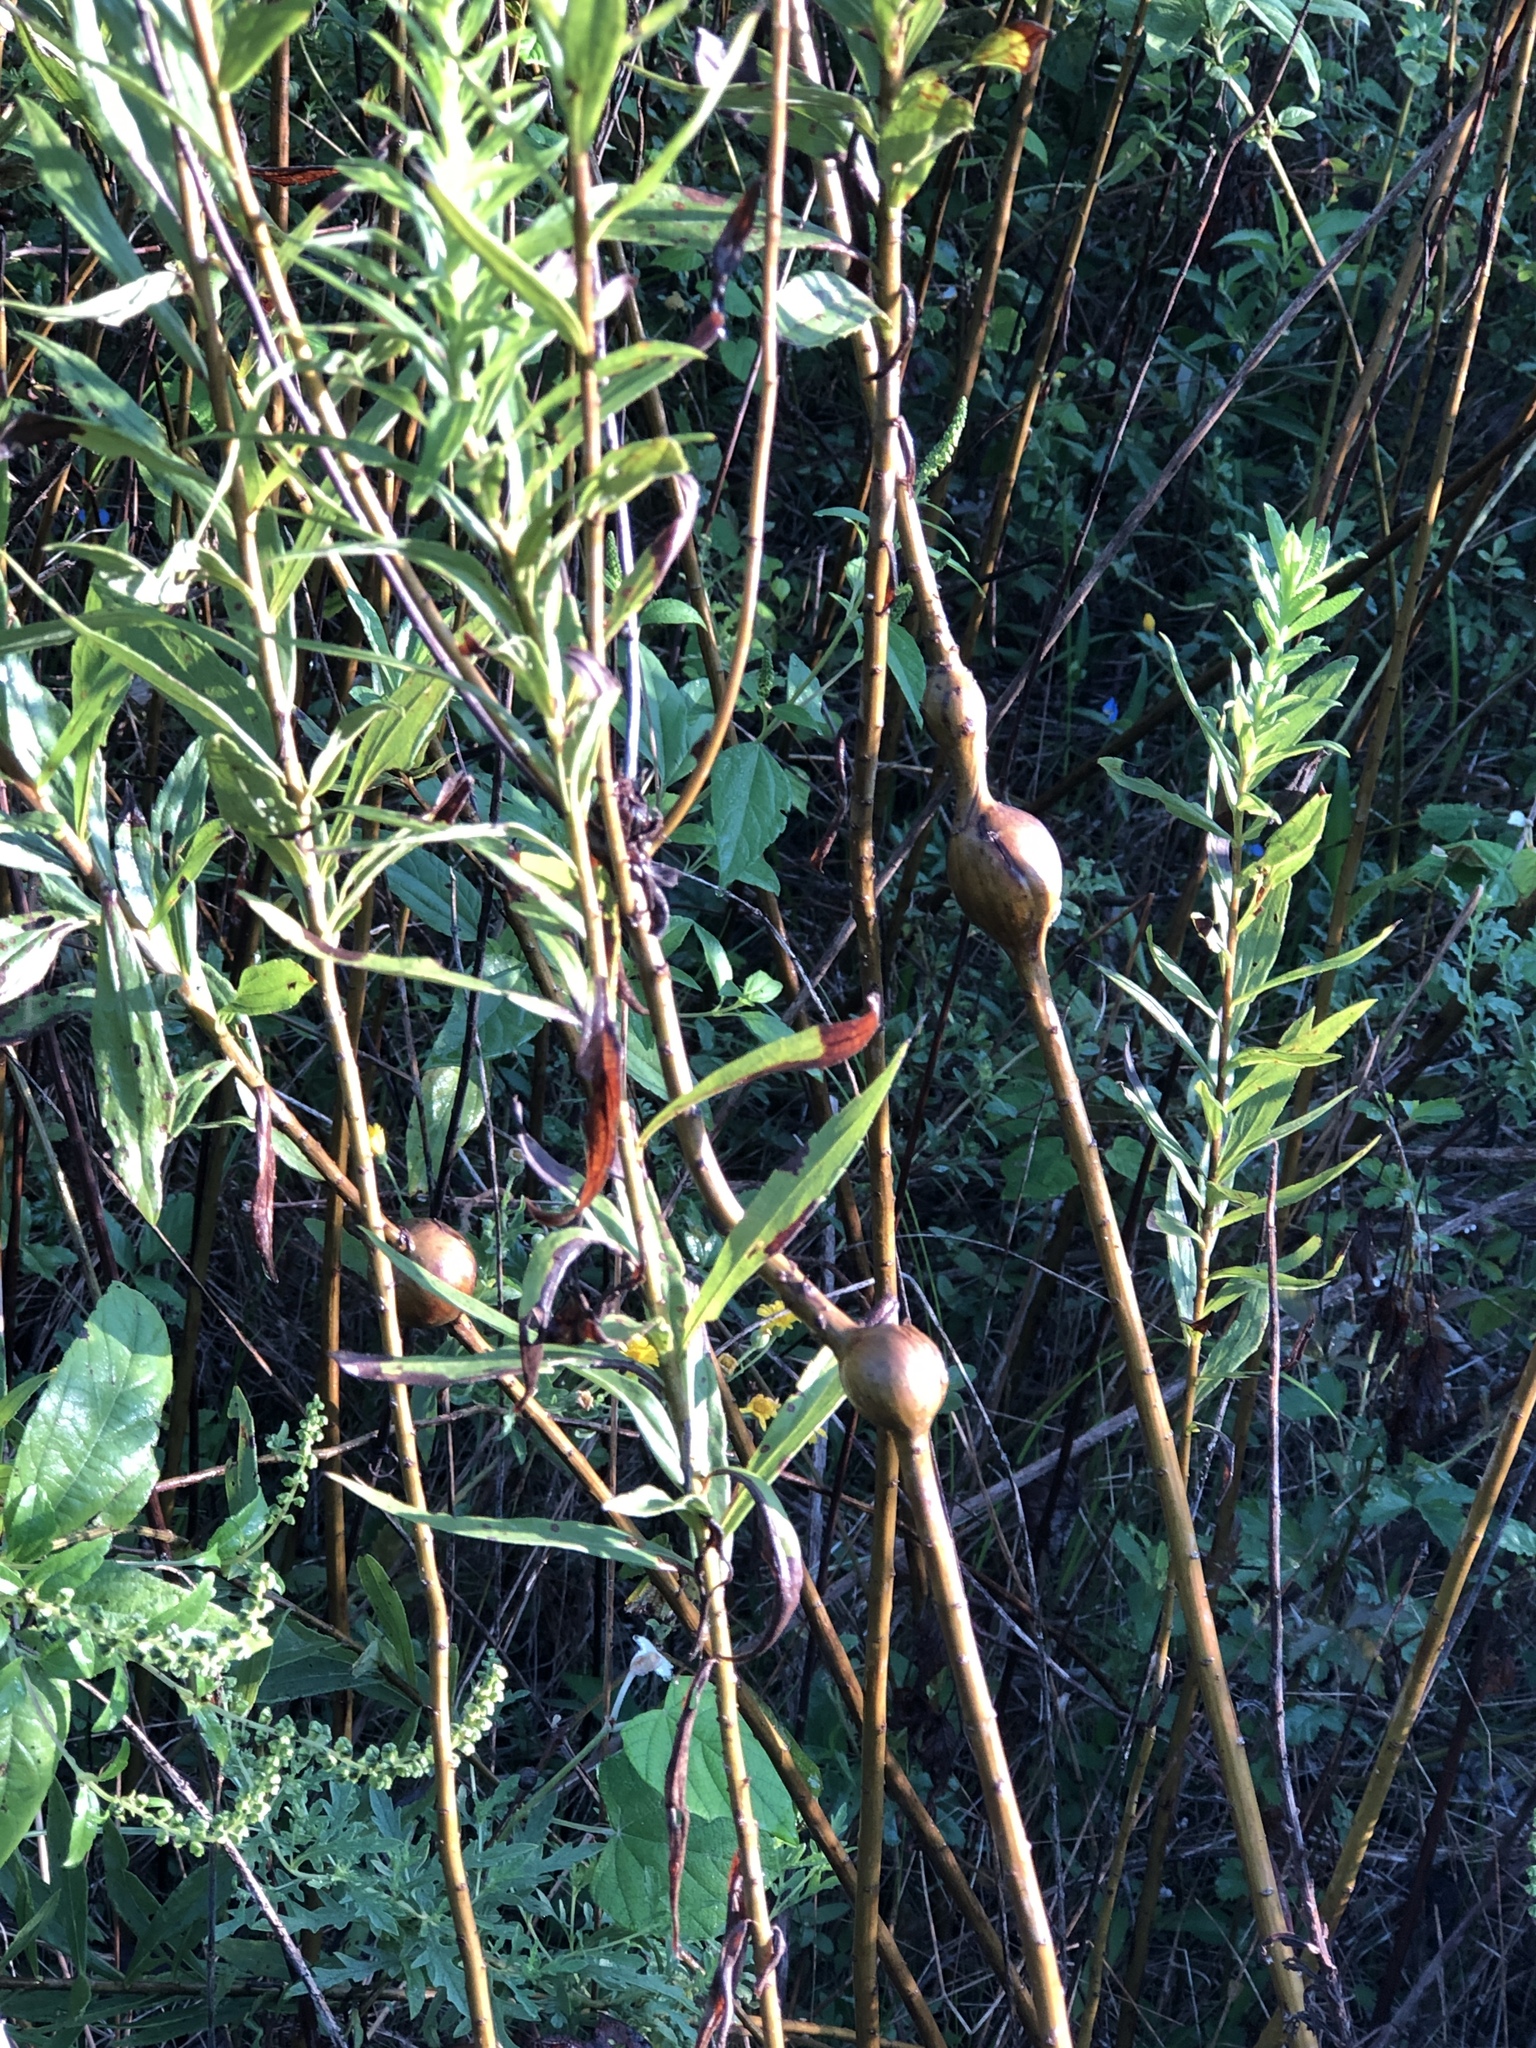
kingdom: Animalia
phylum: Arthropoda
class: Insecta
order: Diptera
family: Tephritidae
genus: Eurosta
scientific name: Eurosta solidaginis
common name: Goldenrod gall fly
